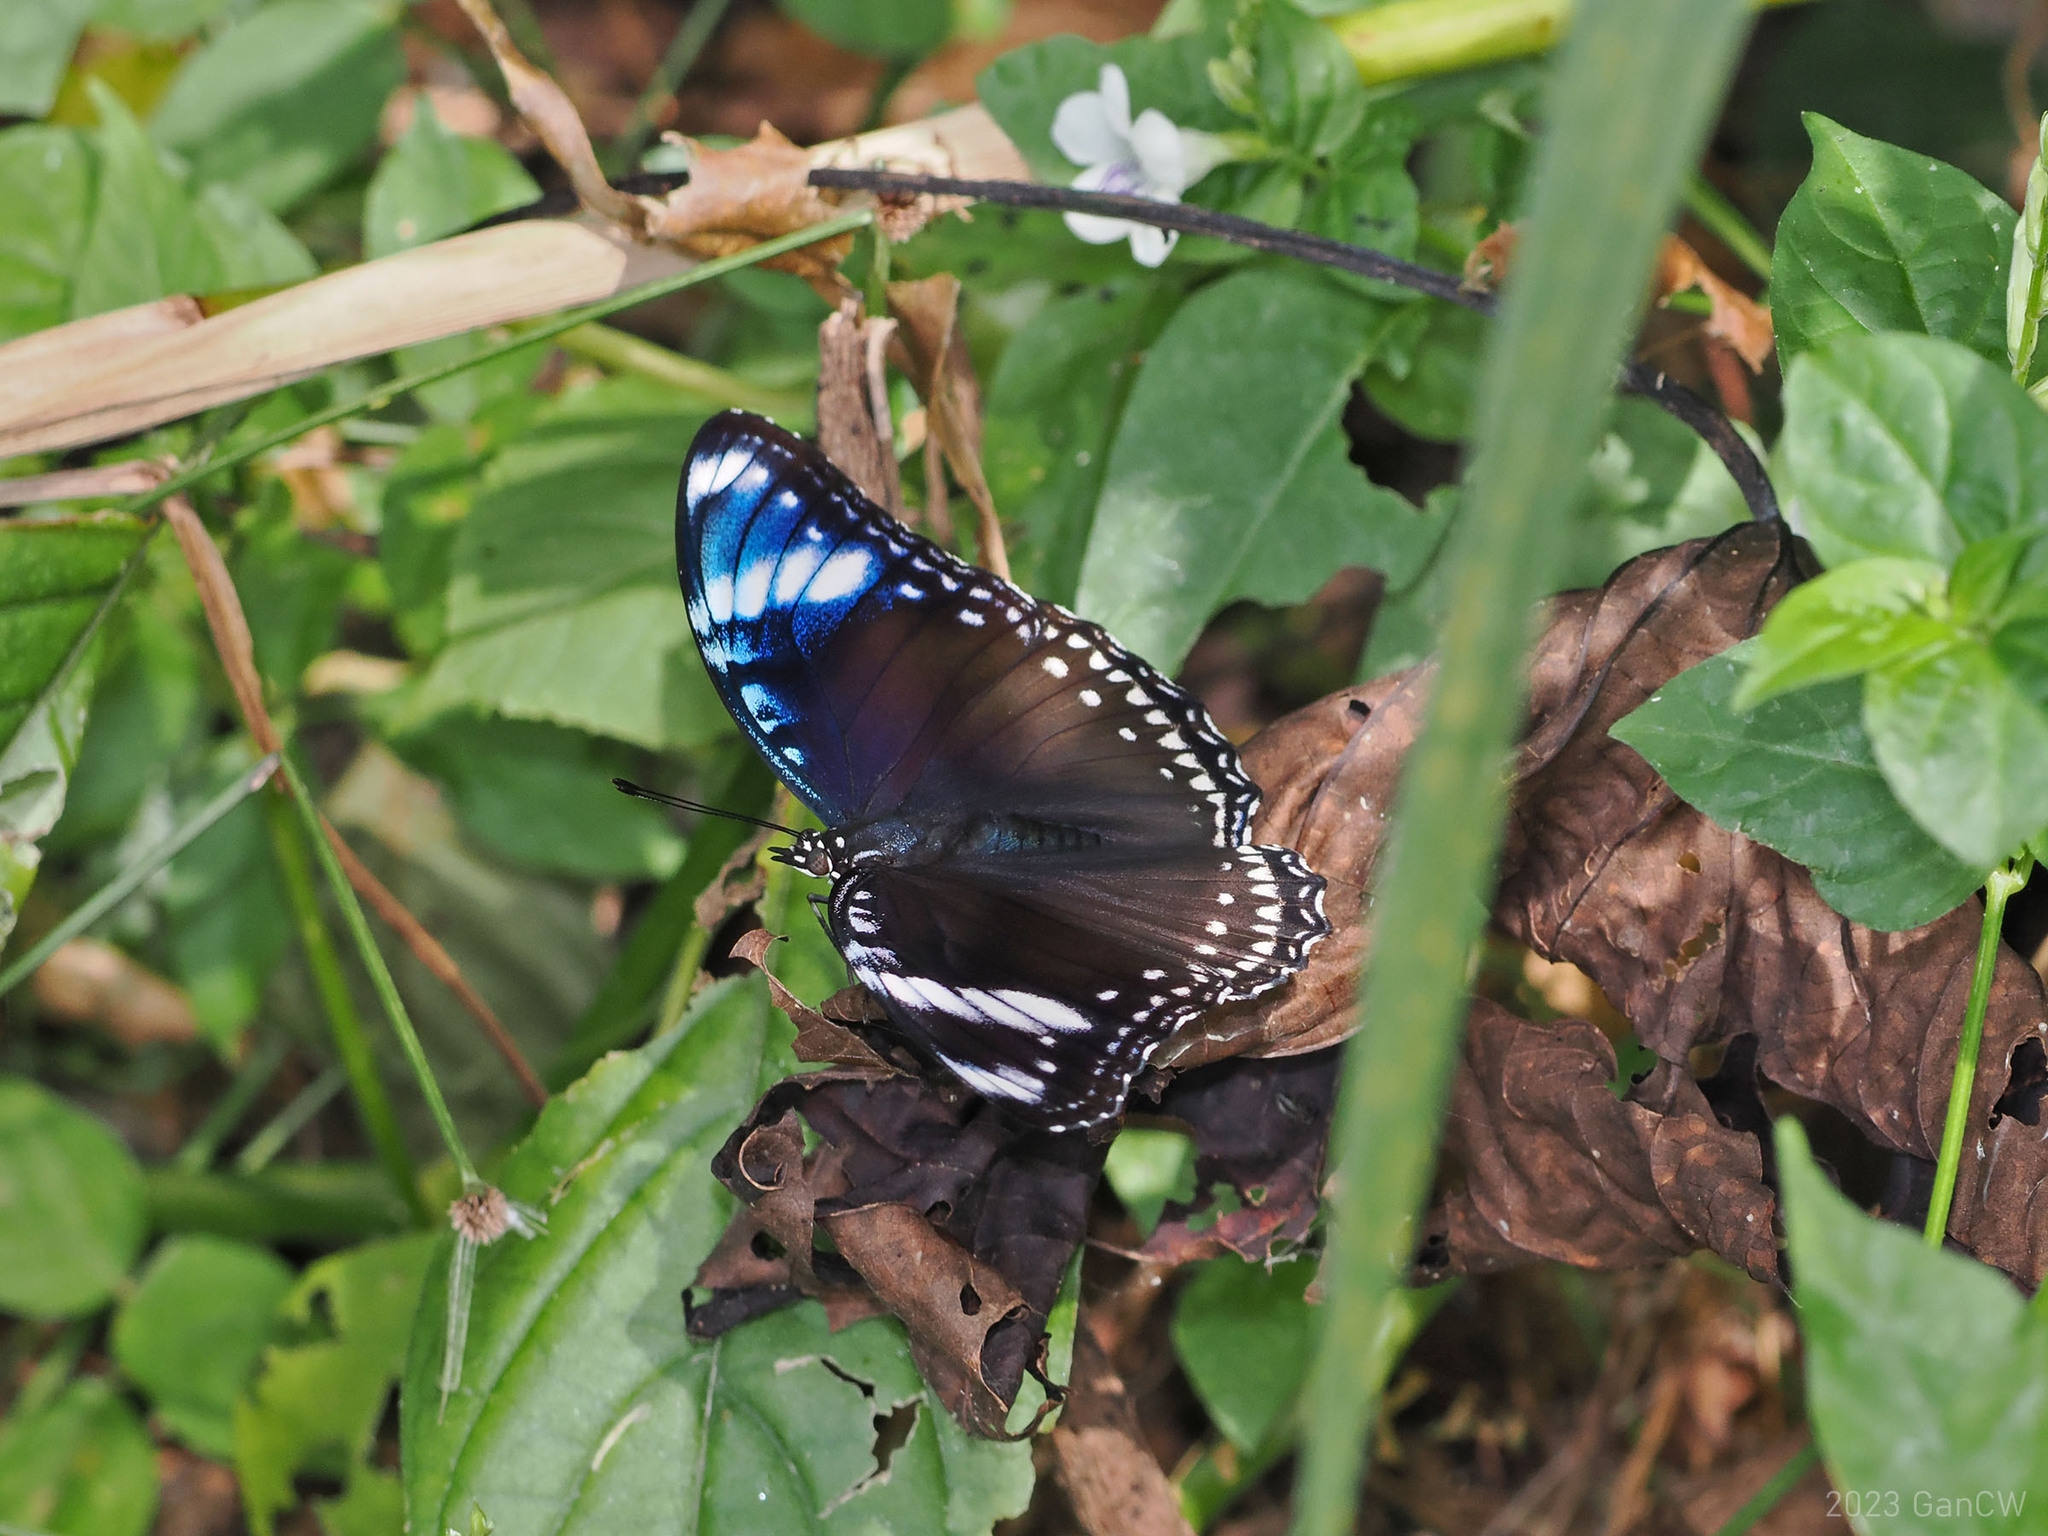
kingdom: Animalia
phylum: Arthropoda
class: Insecta
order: Lepidoptera
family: Nymphalidae
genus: Hypolimnas
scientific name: Hypolimnas bolina
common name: Great eggfly
